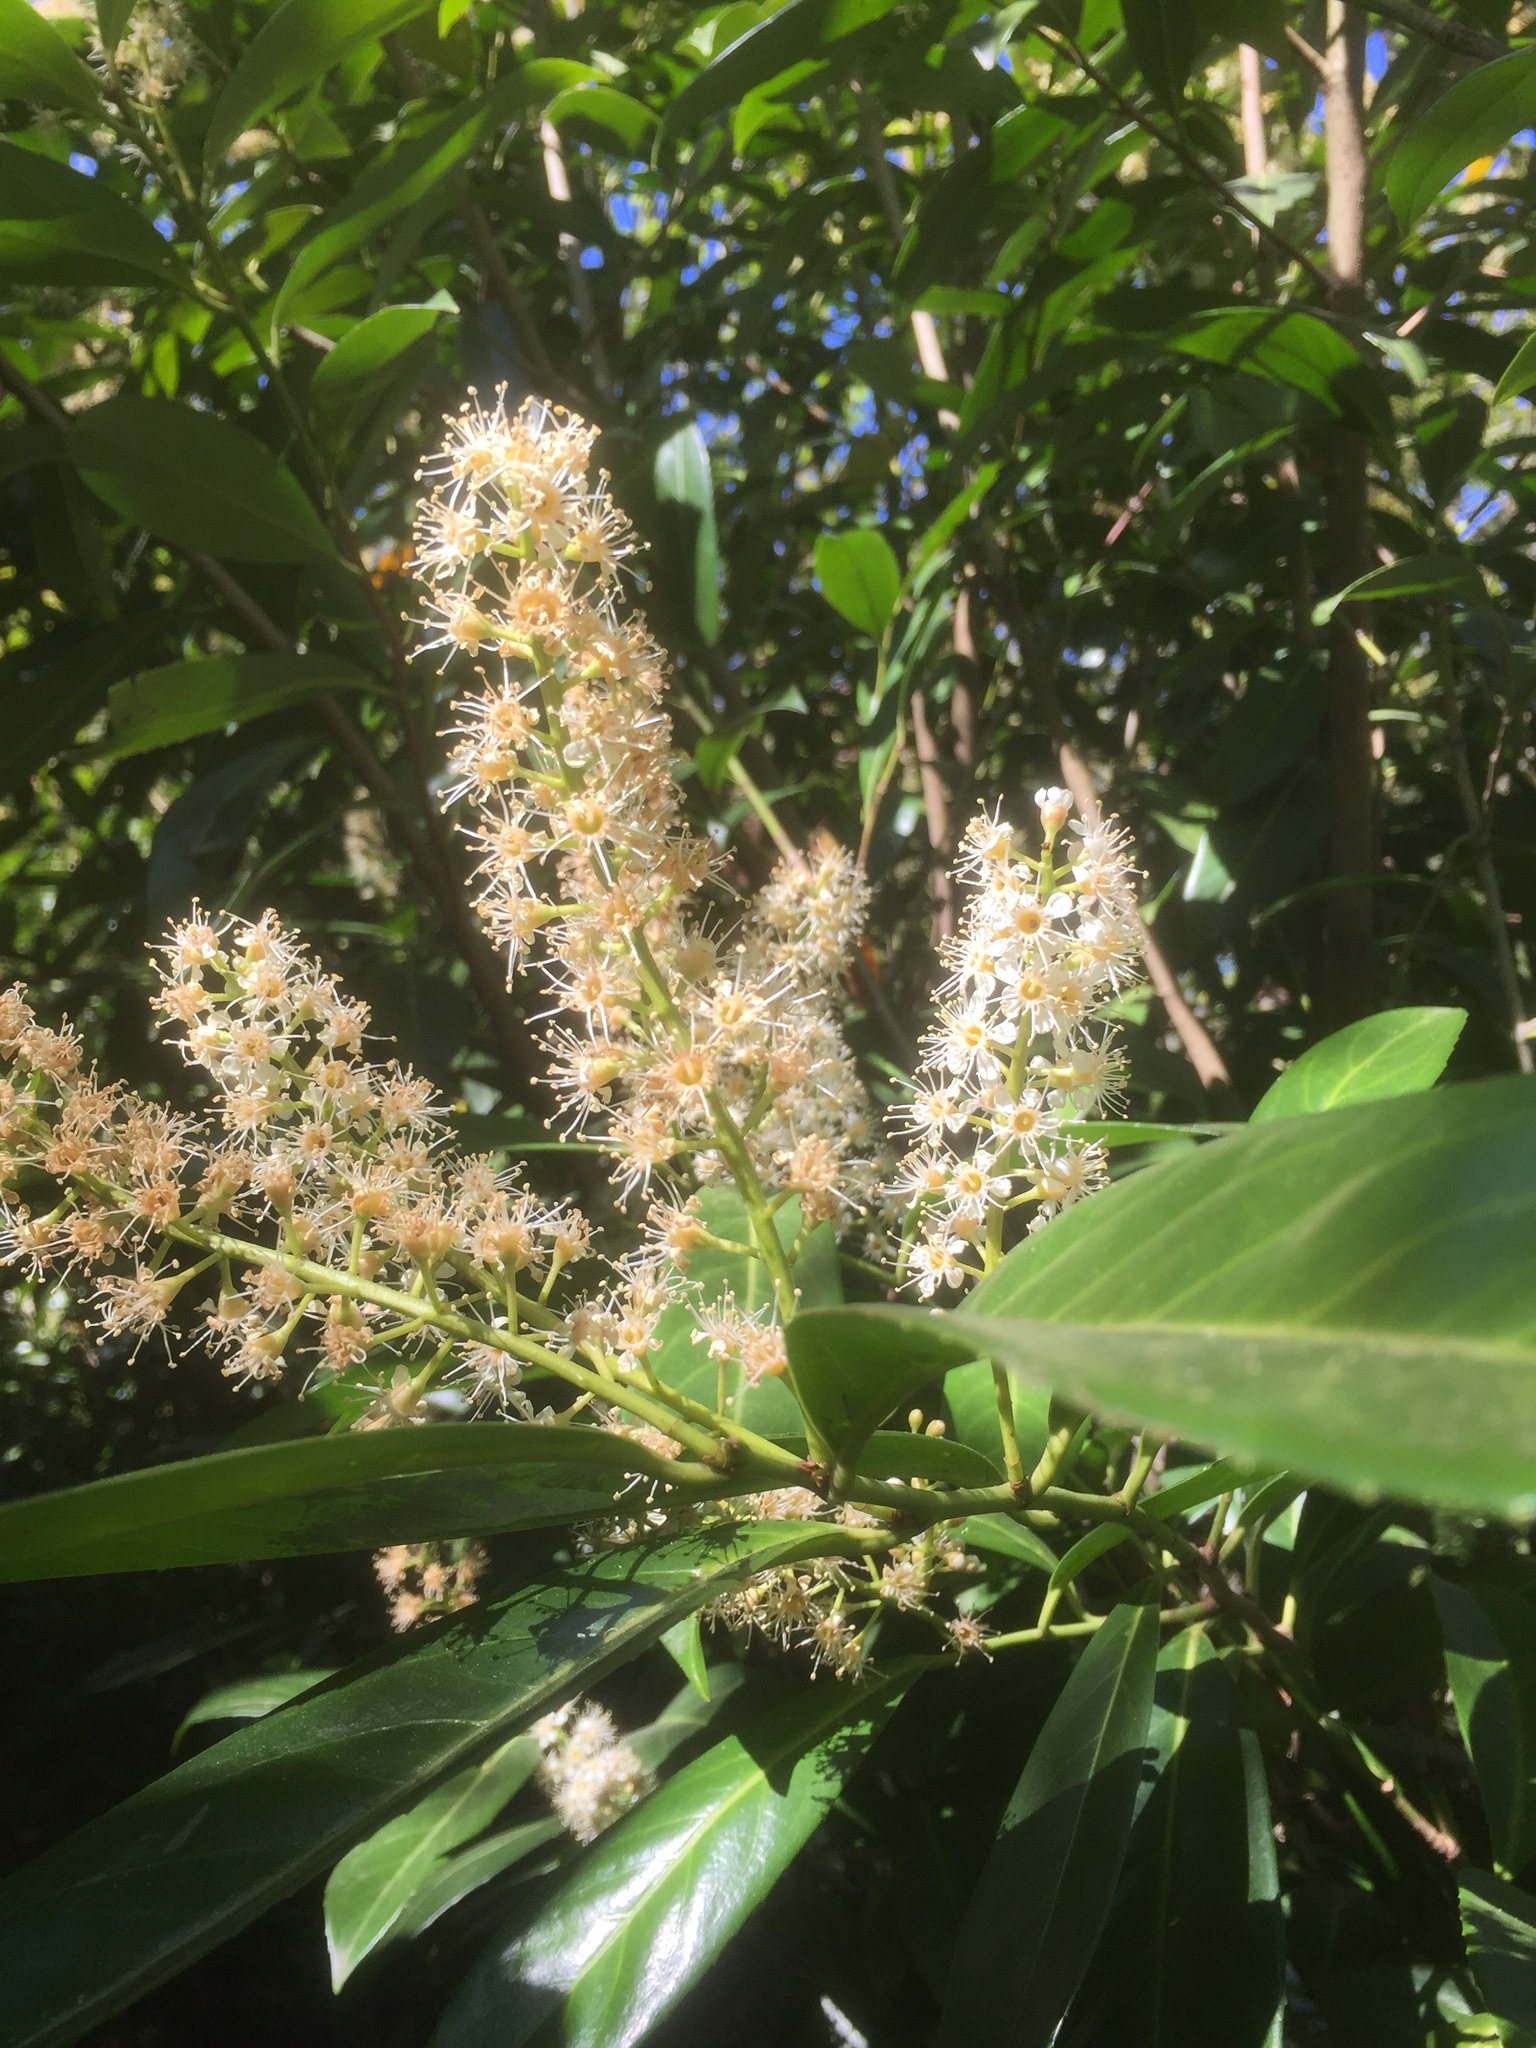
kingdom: Plantae
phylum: Tracheophyta
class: Magnoliopsida
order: Rosales
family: Rosaceae
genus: Prunus
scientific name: Prunus laurocerasus
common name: Cherry laurel
